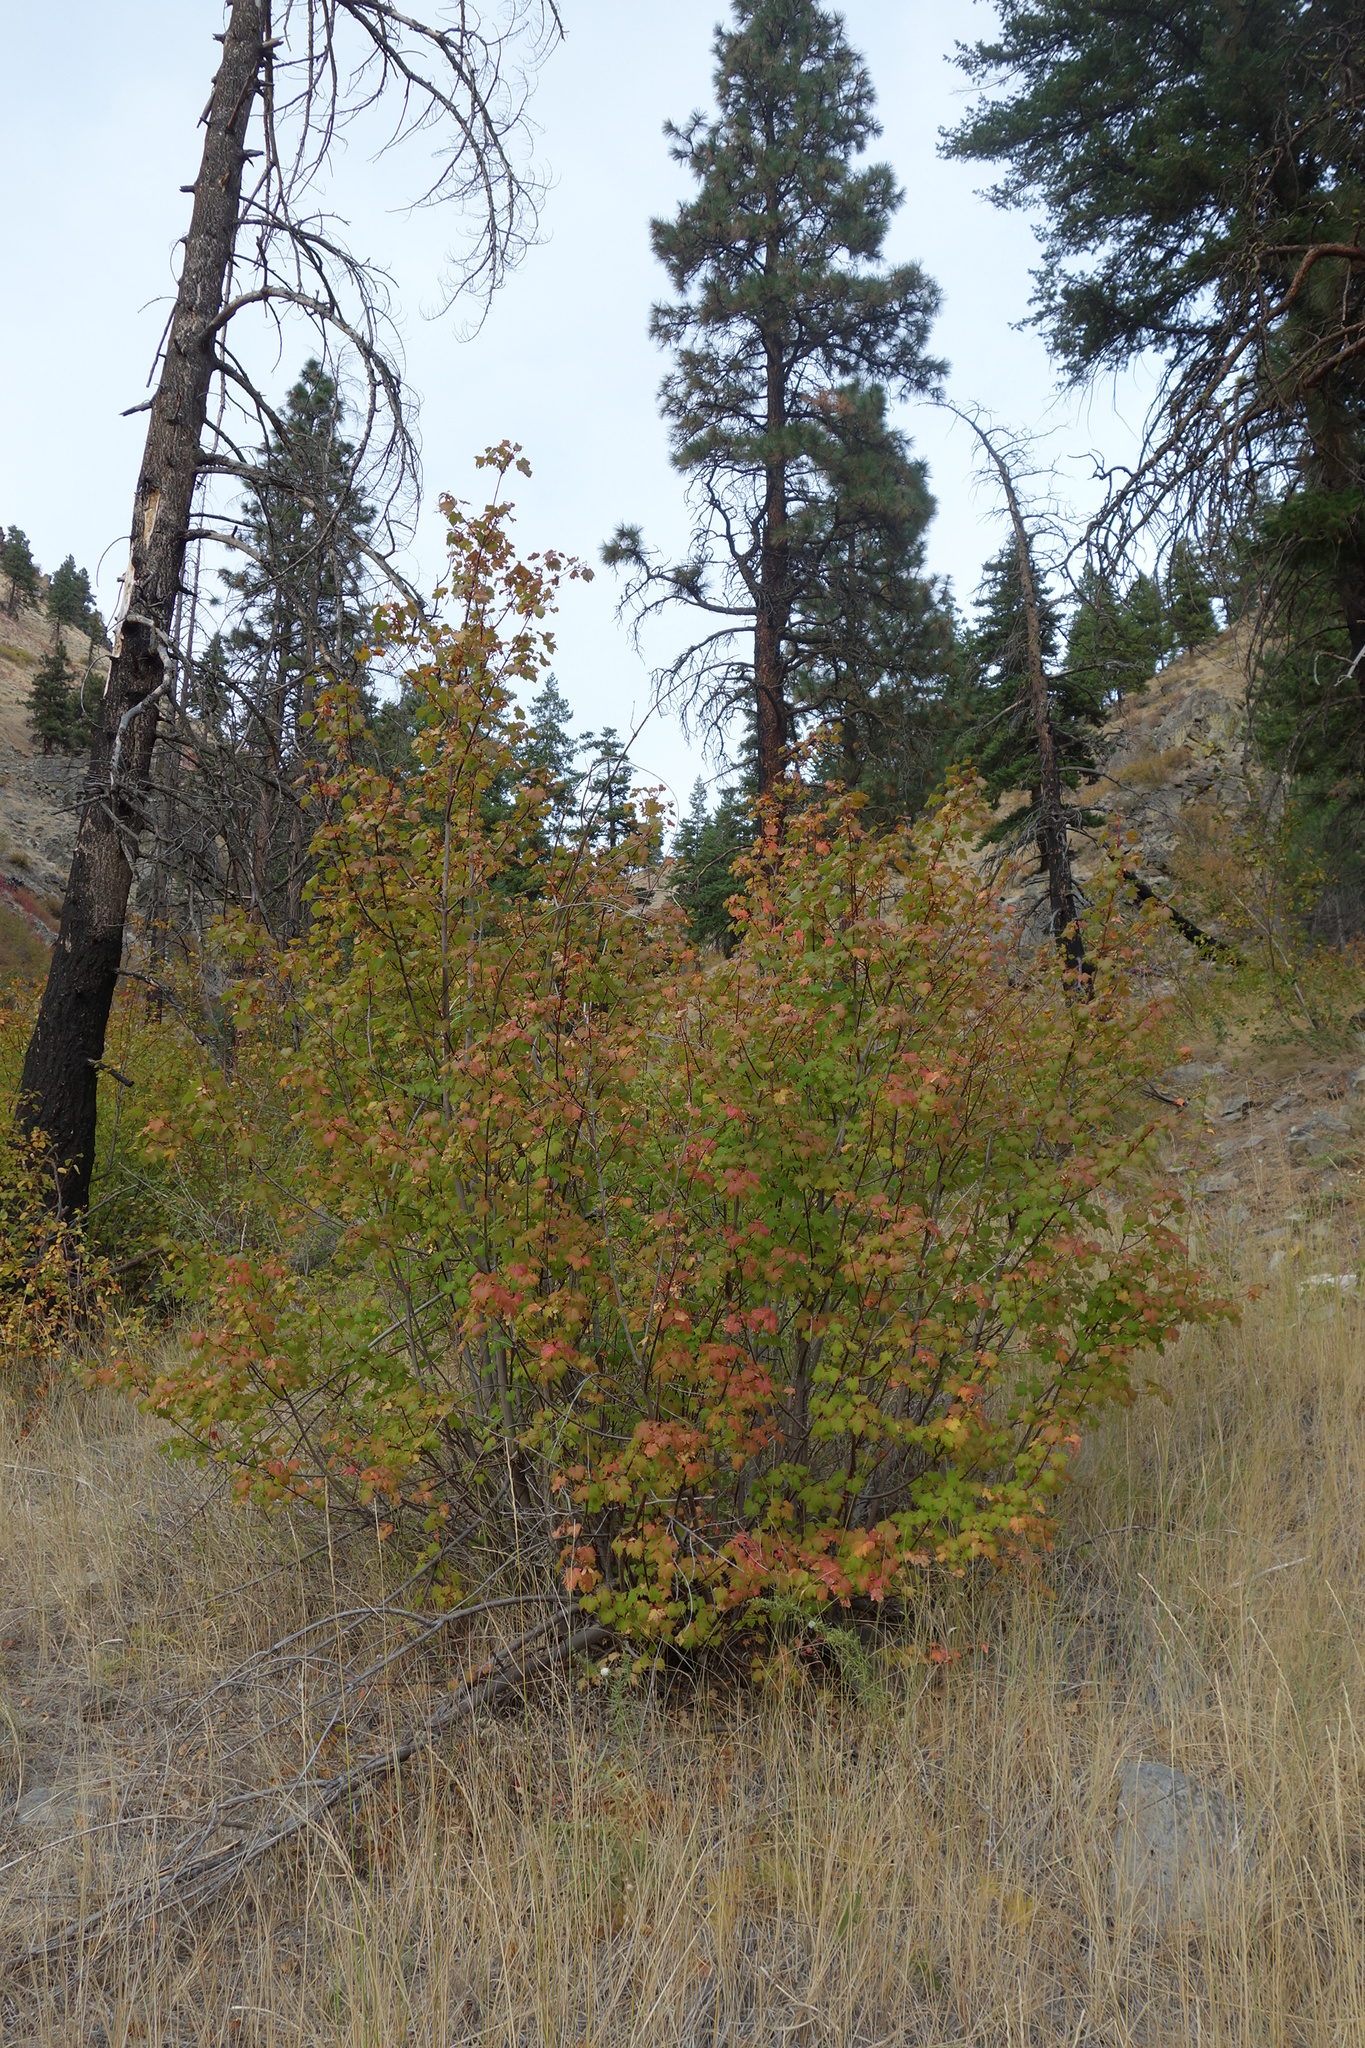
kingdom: Plantae
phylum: Tracheophyta
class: Magnoliopsida
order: Sapindales
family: Sapindaceae
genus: Acer
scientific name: Acer glabrum
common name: Rocky mountain maple
